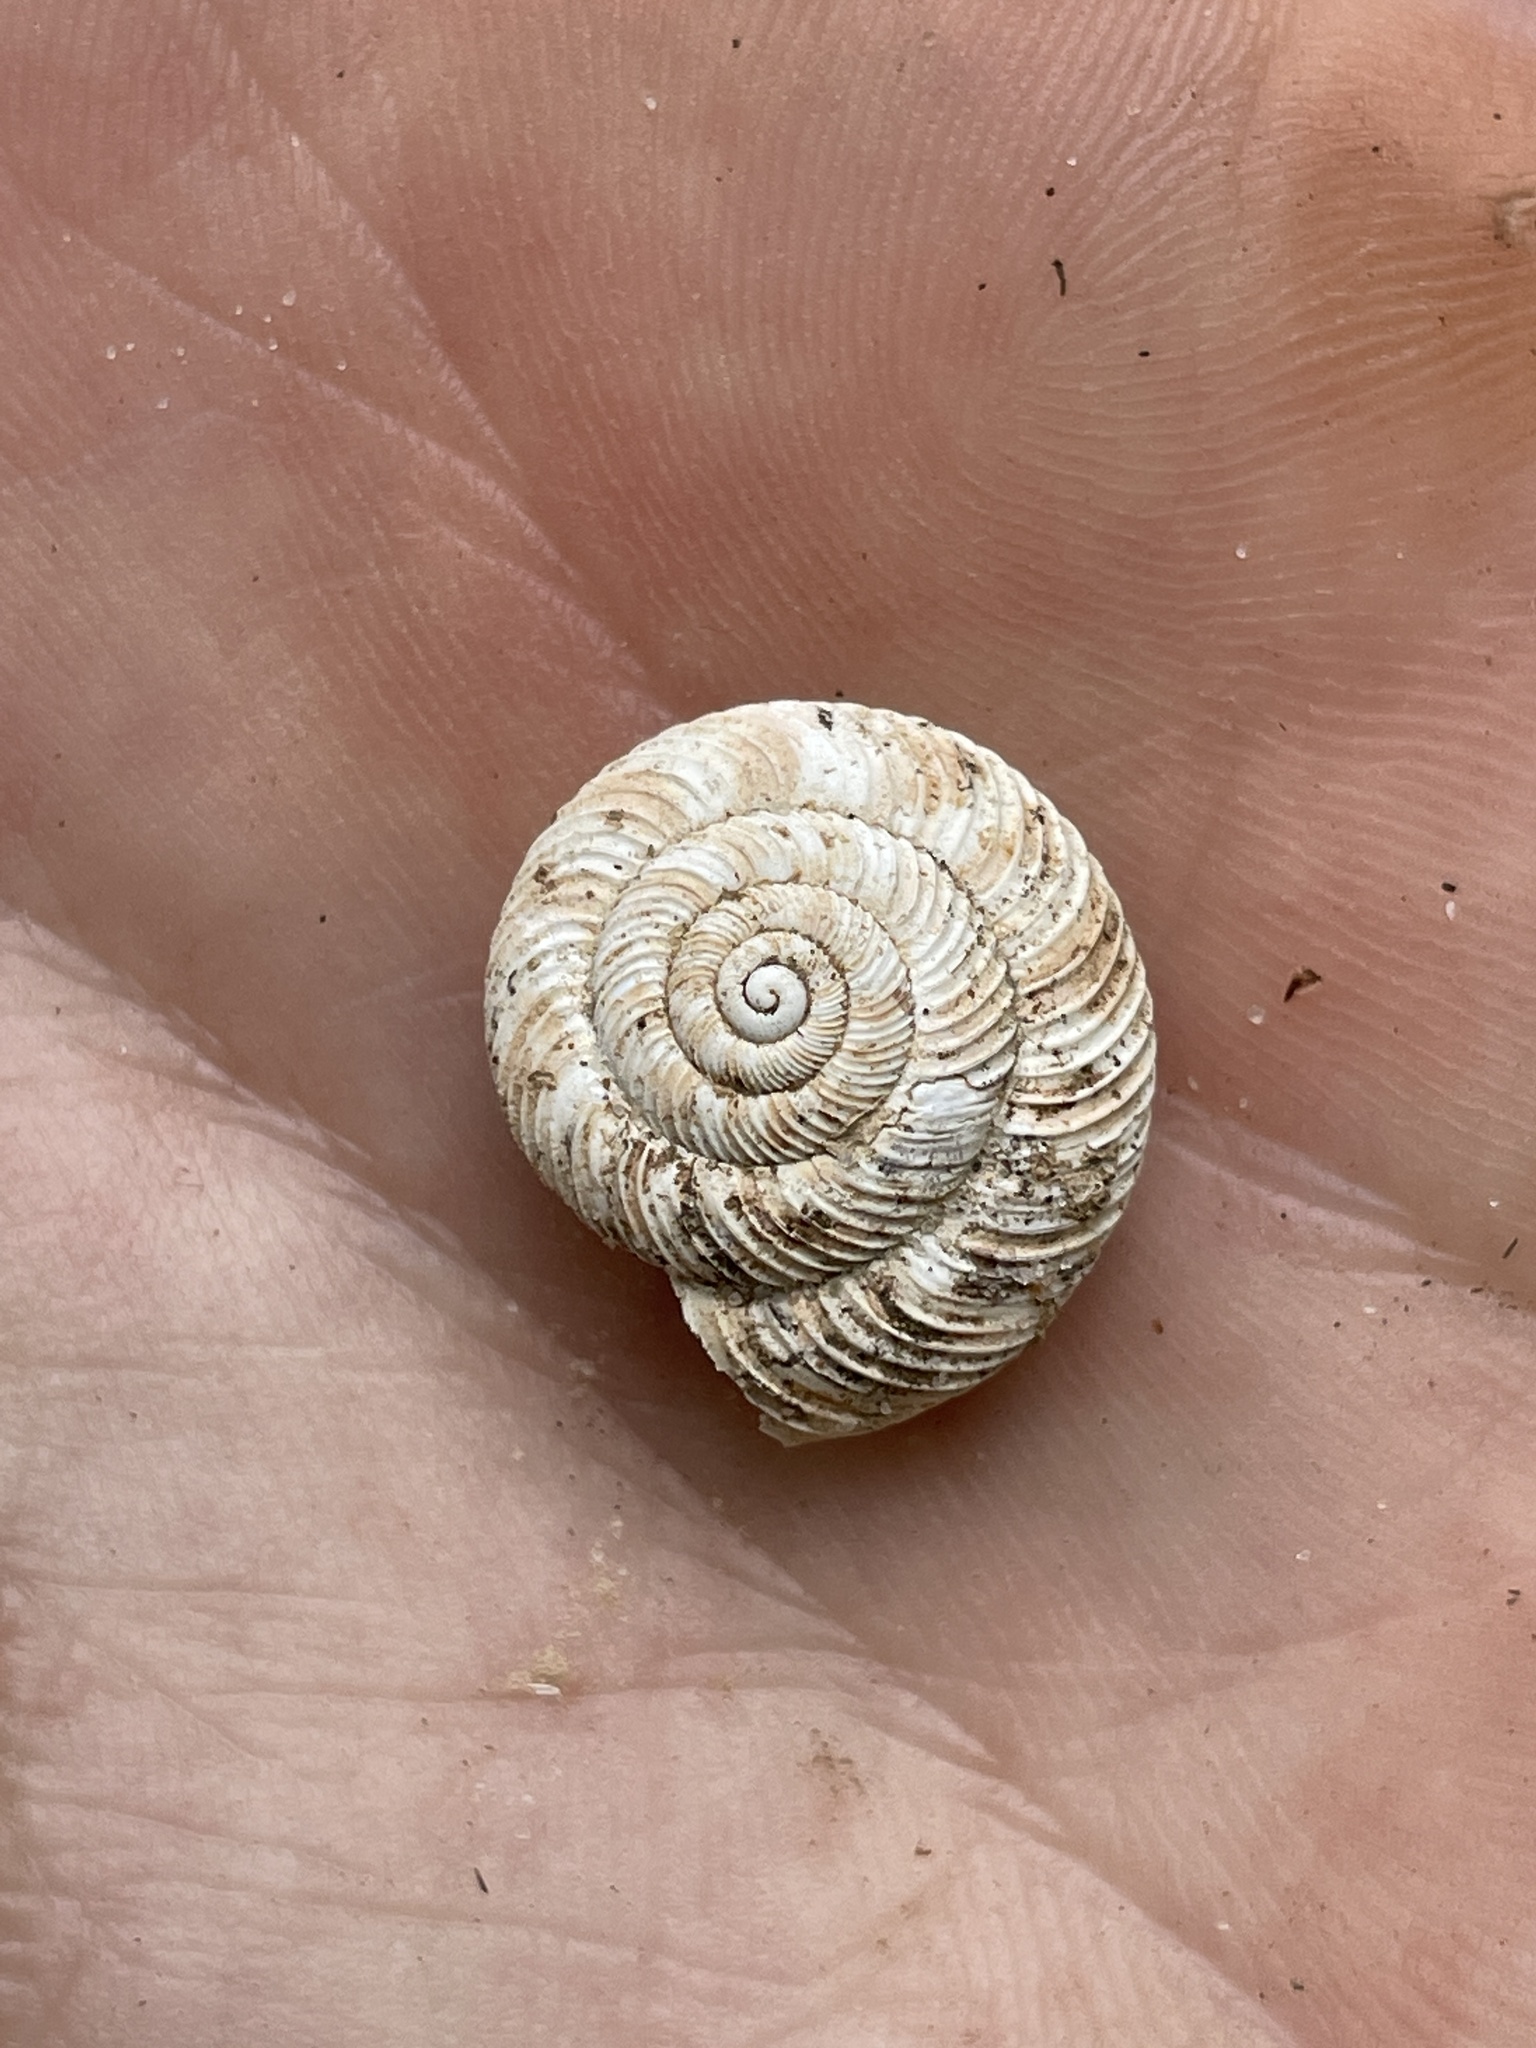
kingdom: Animalia
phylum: Mollusca
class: Gastropoda
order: Stylommatophora
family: Discidae
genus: Anguispira
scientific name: Anguispira alternata
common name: Flamed tigersnail
